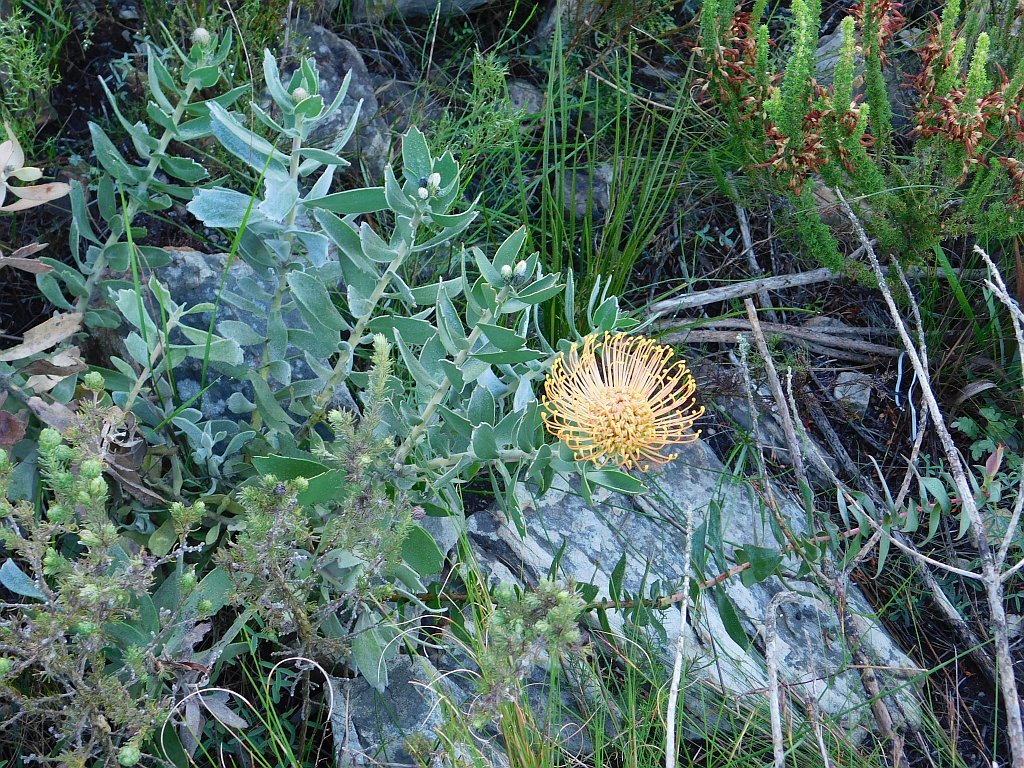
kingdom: Plantae
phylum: Tracheophyta
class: Magnoliopsida
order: Proteales
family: Proteaceae
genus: Leucospermum
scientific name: Leucospermum cordifolium
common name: Red pincushion-protea
